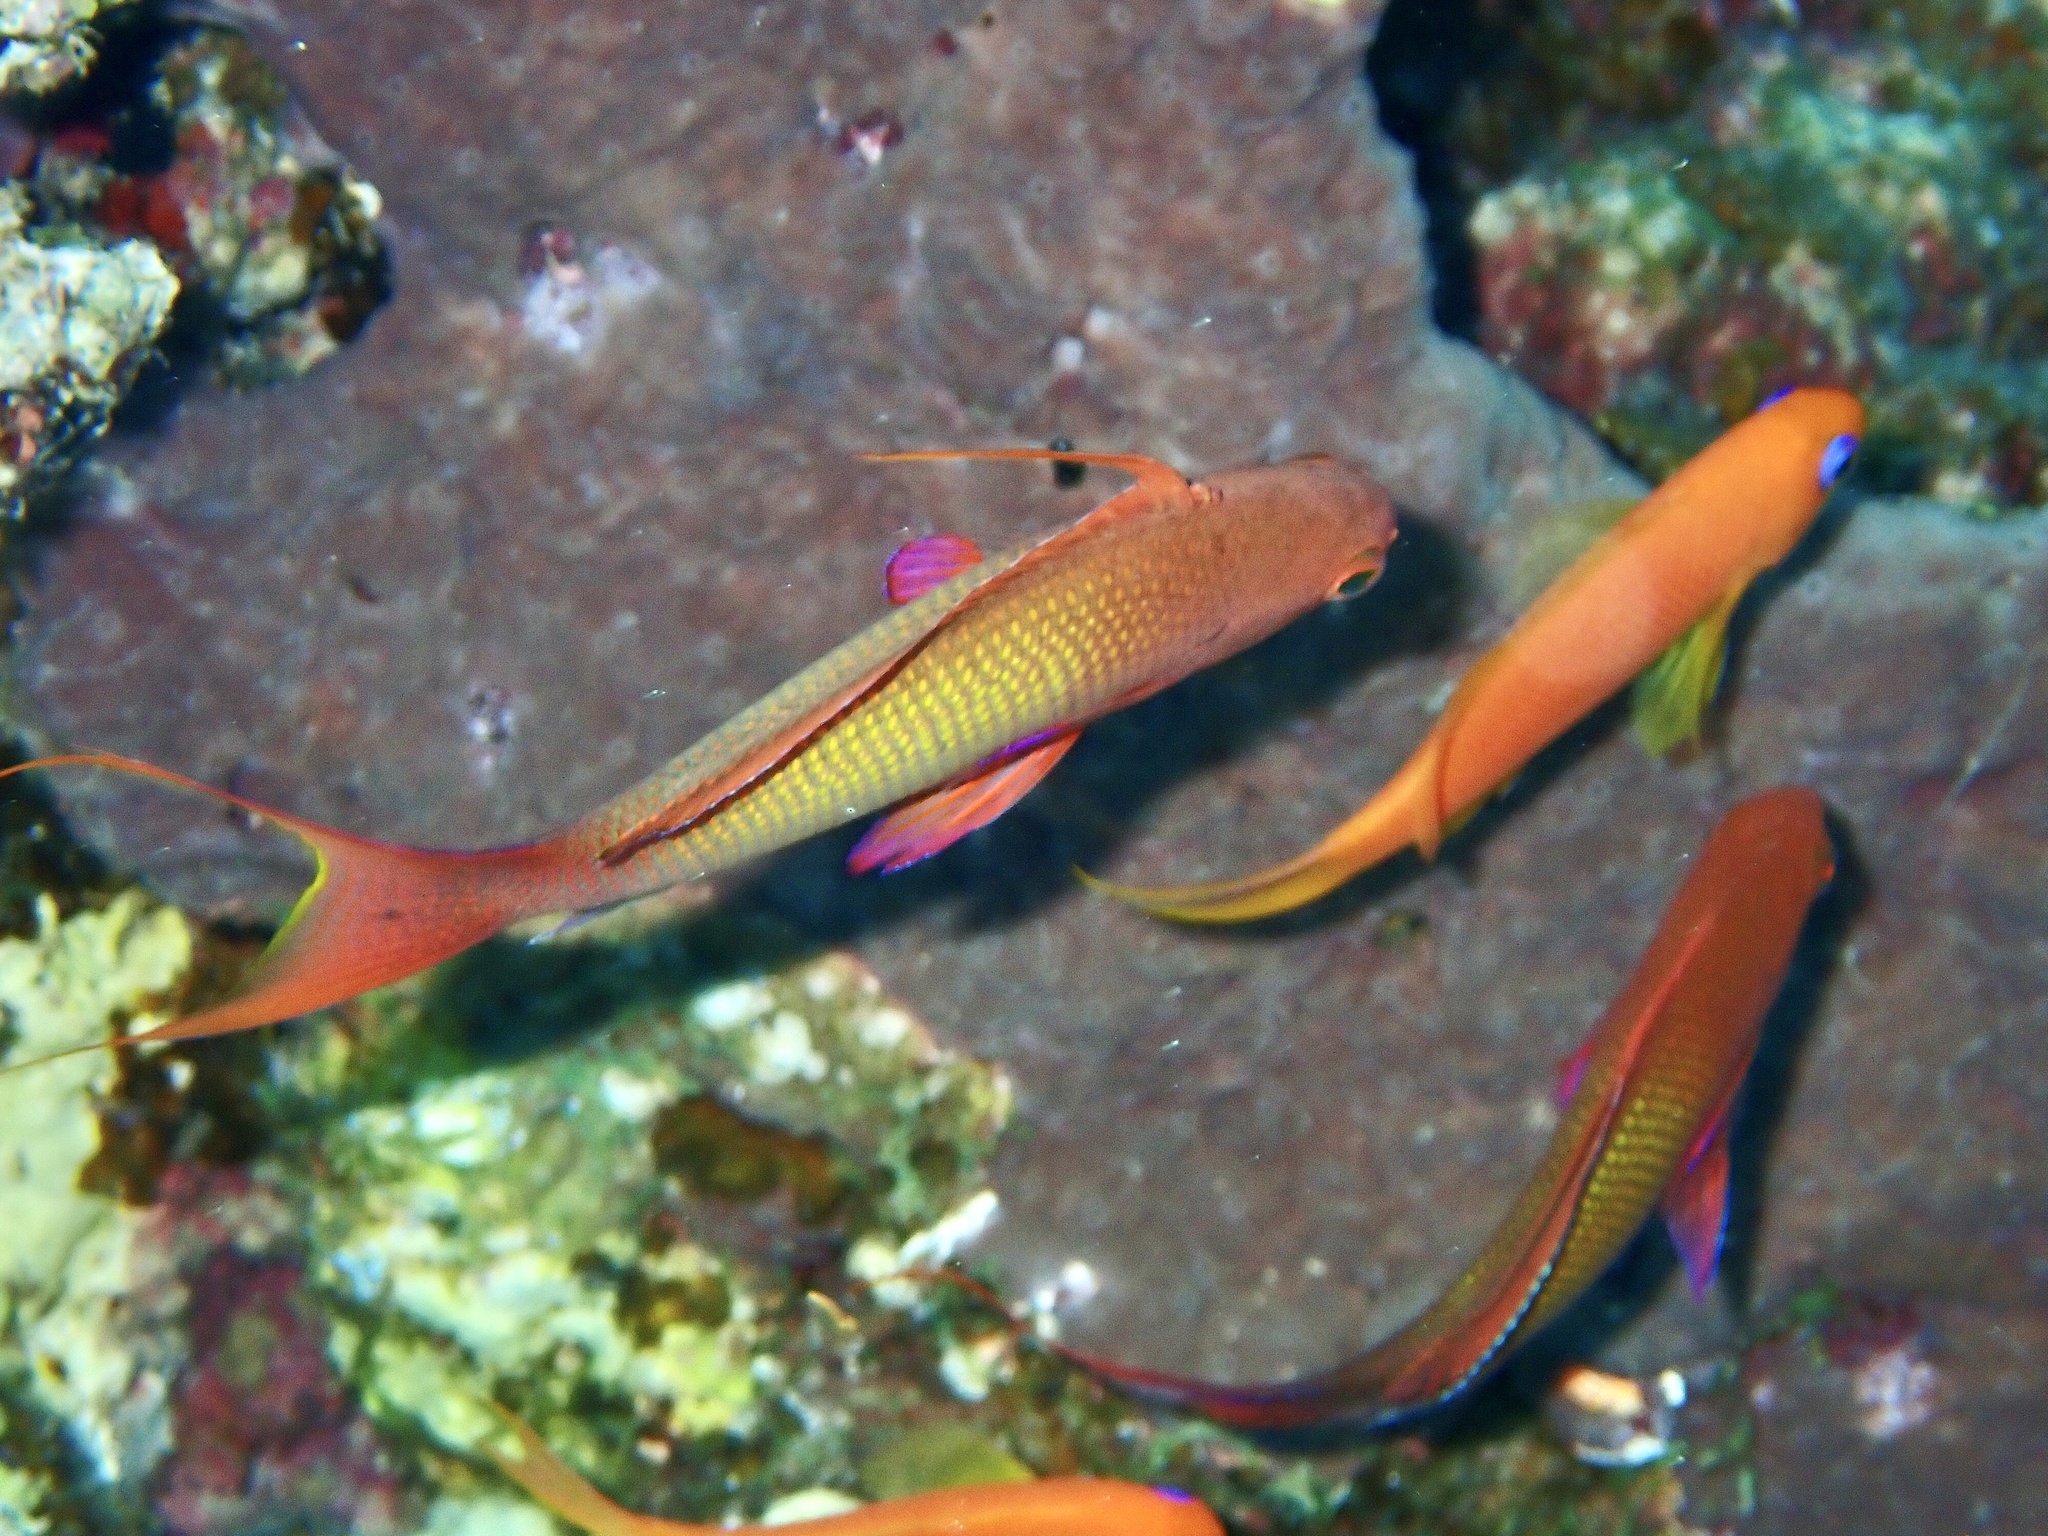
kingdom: Animalia
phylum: Chordata
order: Perciformes
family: Serranidae
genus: Pseudanthias
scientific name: Pseudanthias squamipinnis
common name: Scalefin anthias
